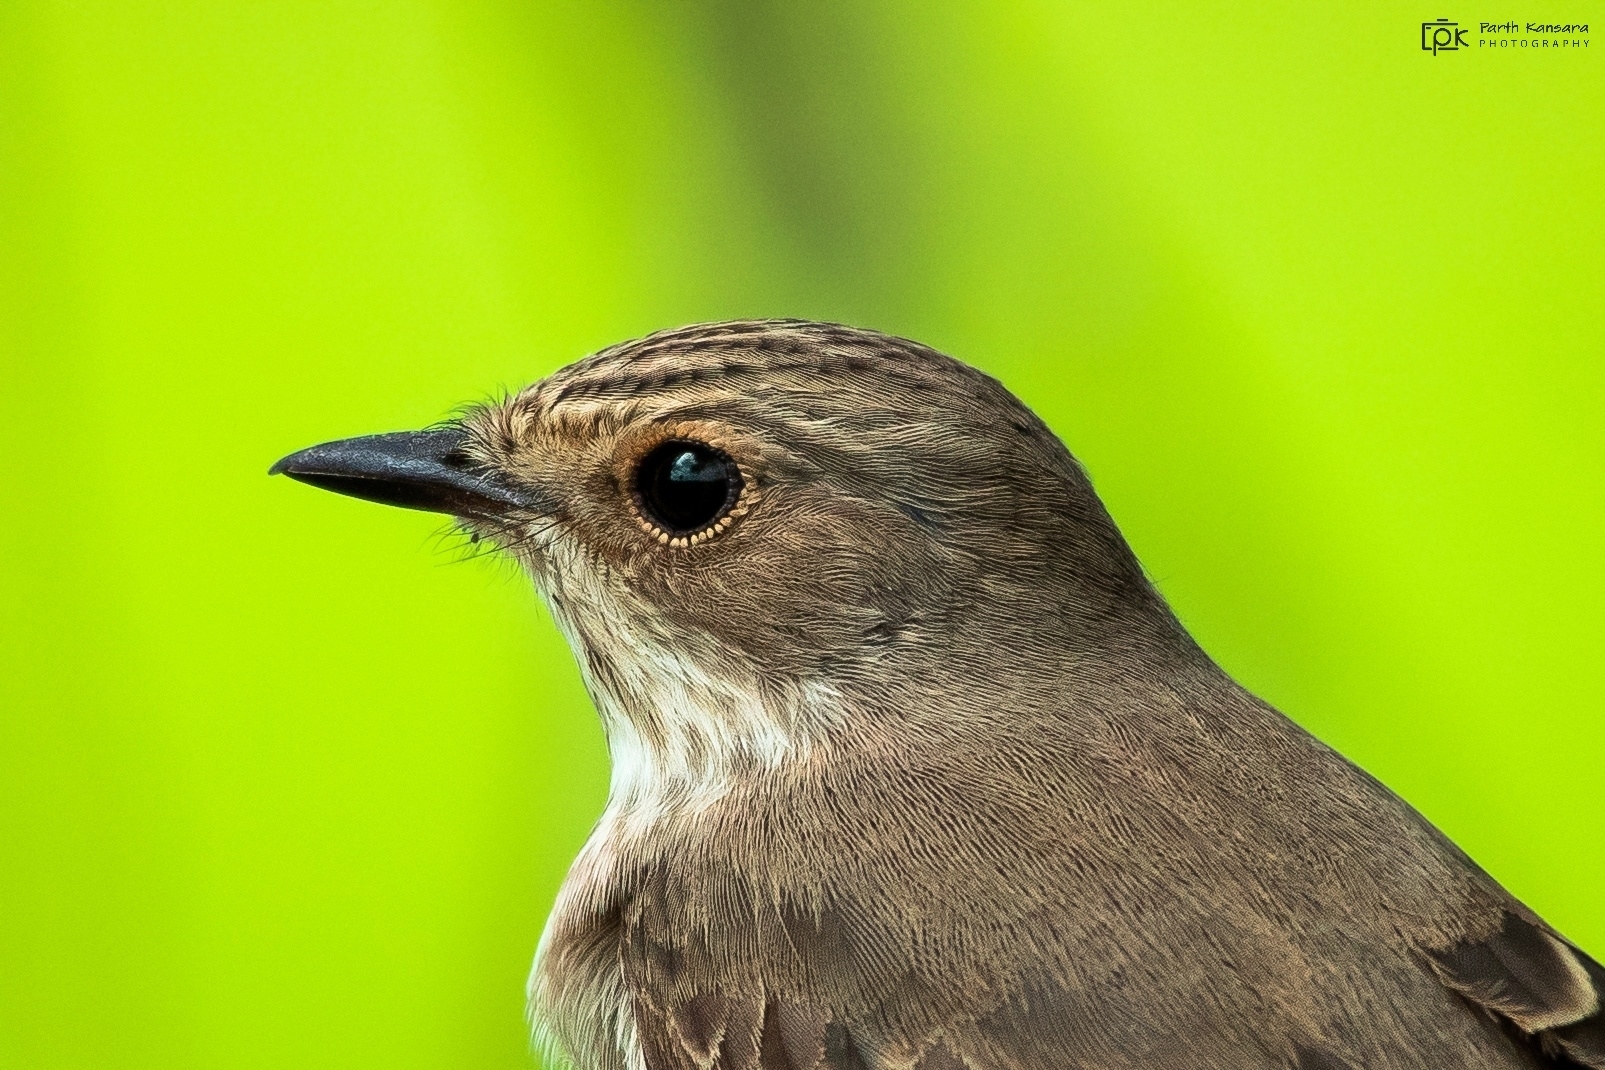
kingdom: Animalia
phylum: Chordata
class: Aves
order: Passeriformes
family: Muscicapidae
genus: Muscicapa
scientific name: Muscicapa striata
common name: Spotted flycatcher
